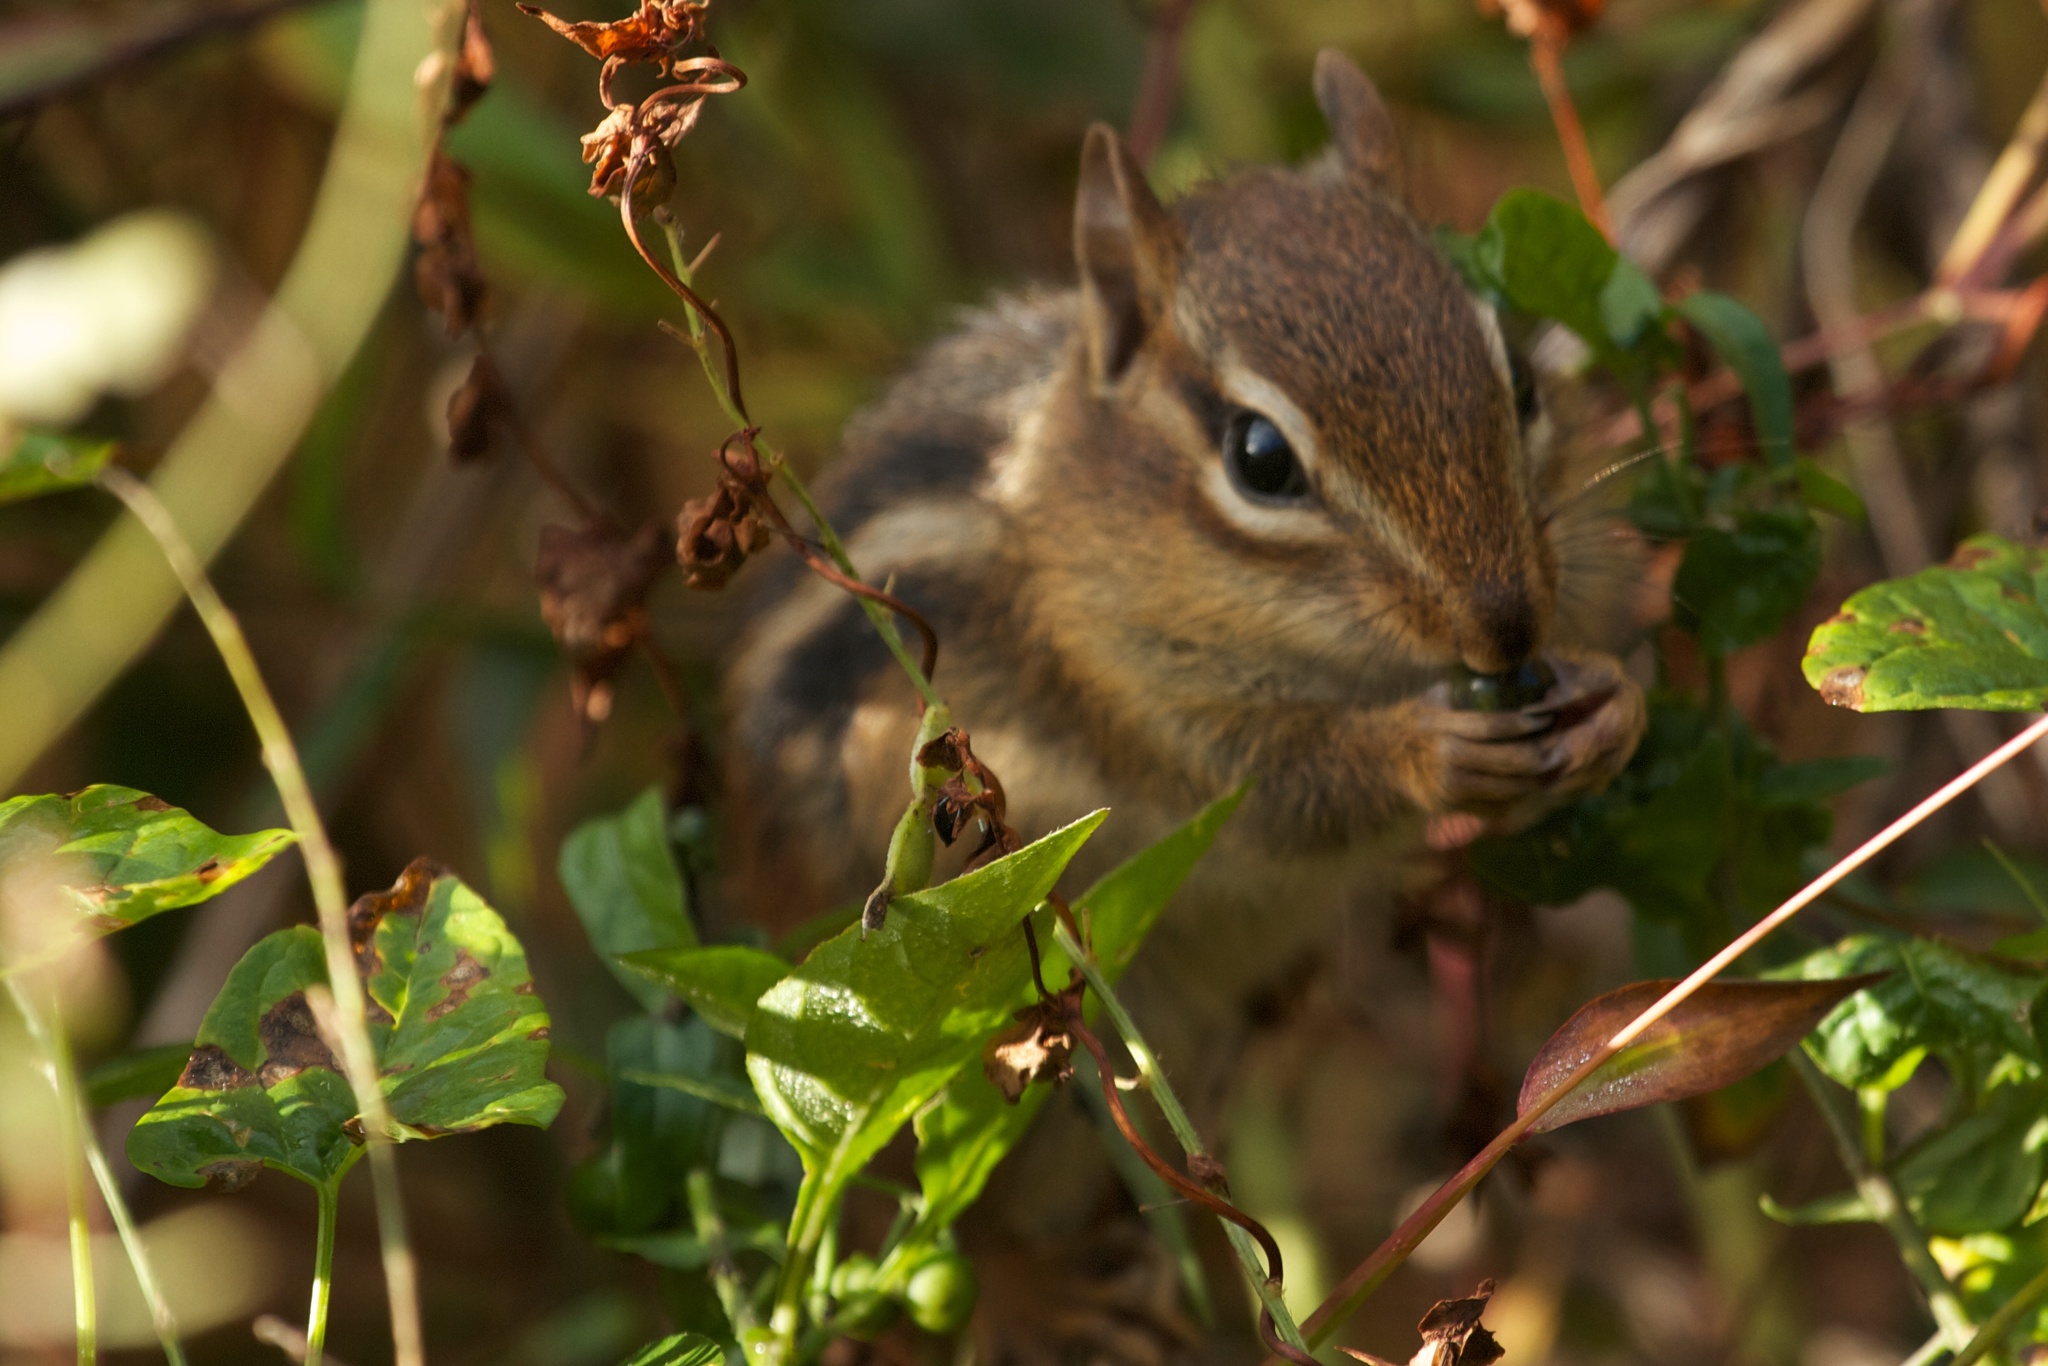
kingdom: Animalia
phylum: Chordata
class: Mammalia
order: Rodentia
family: Sciuridae
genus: Tamias
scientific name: Tamias striatus
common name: Eastern chipmunk
